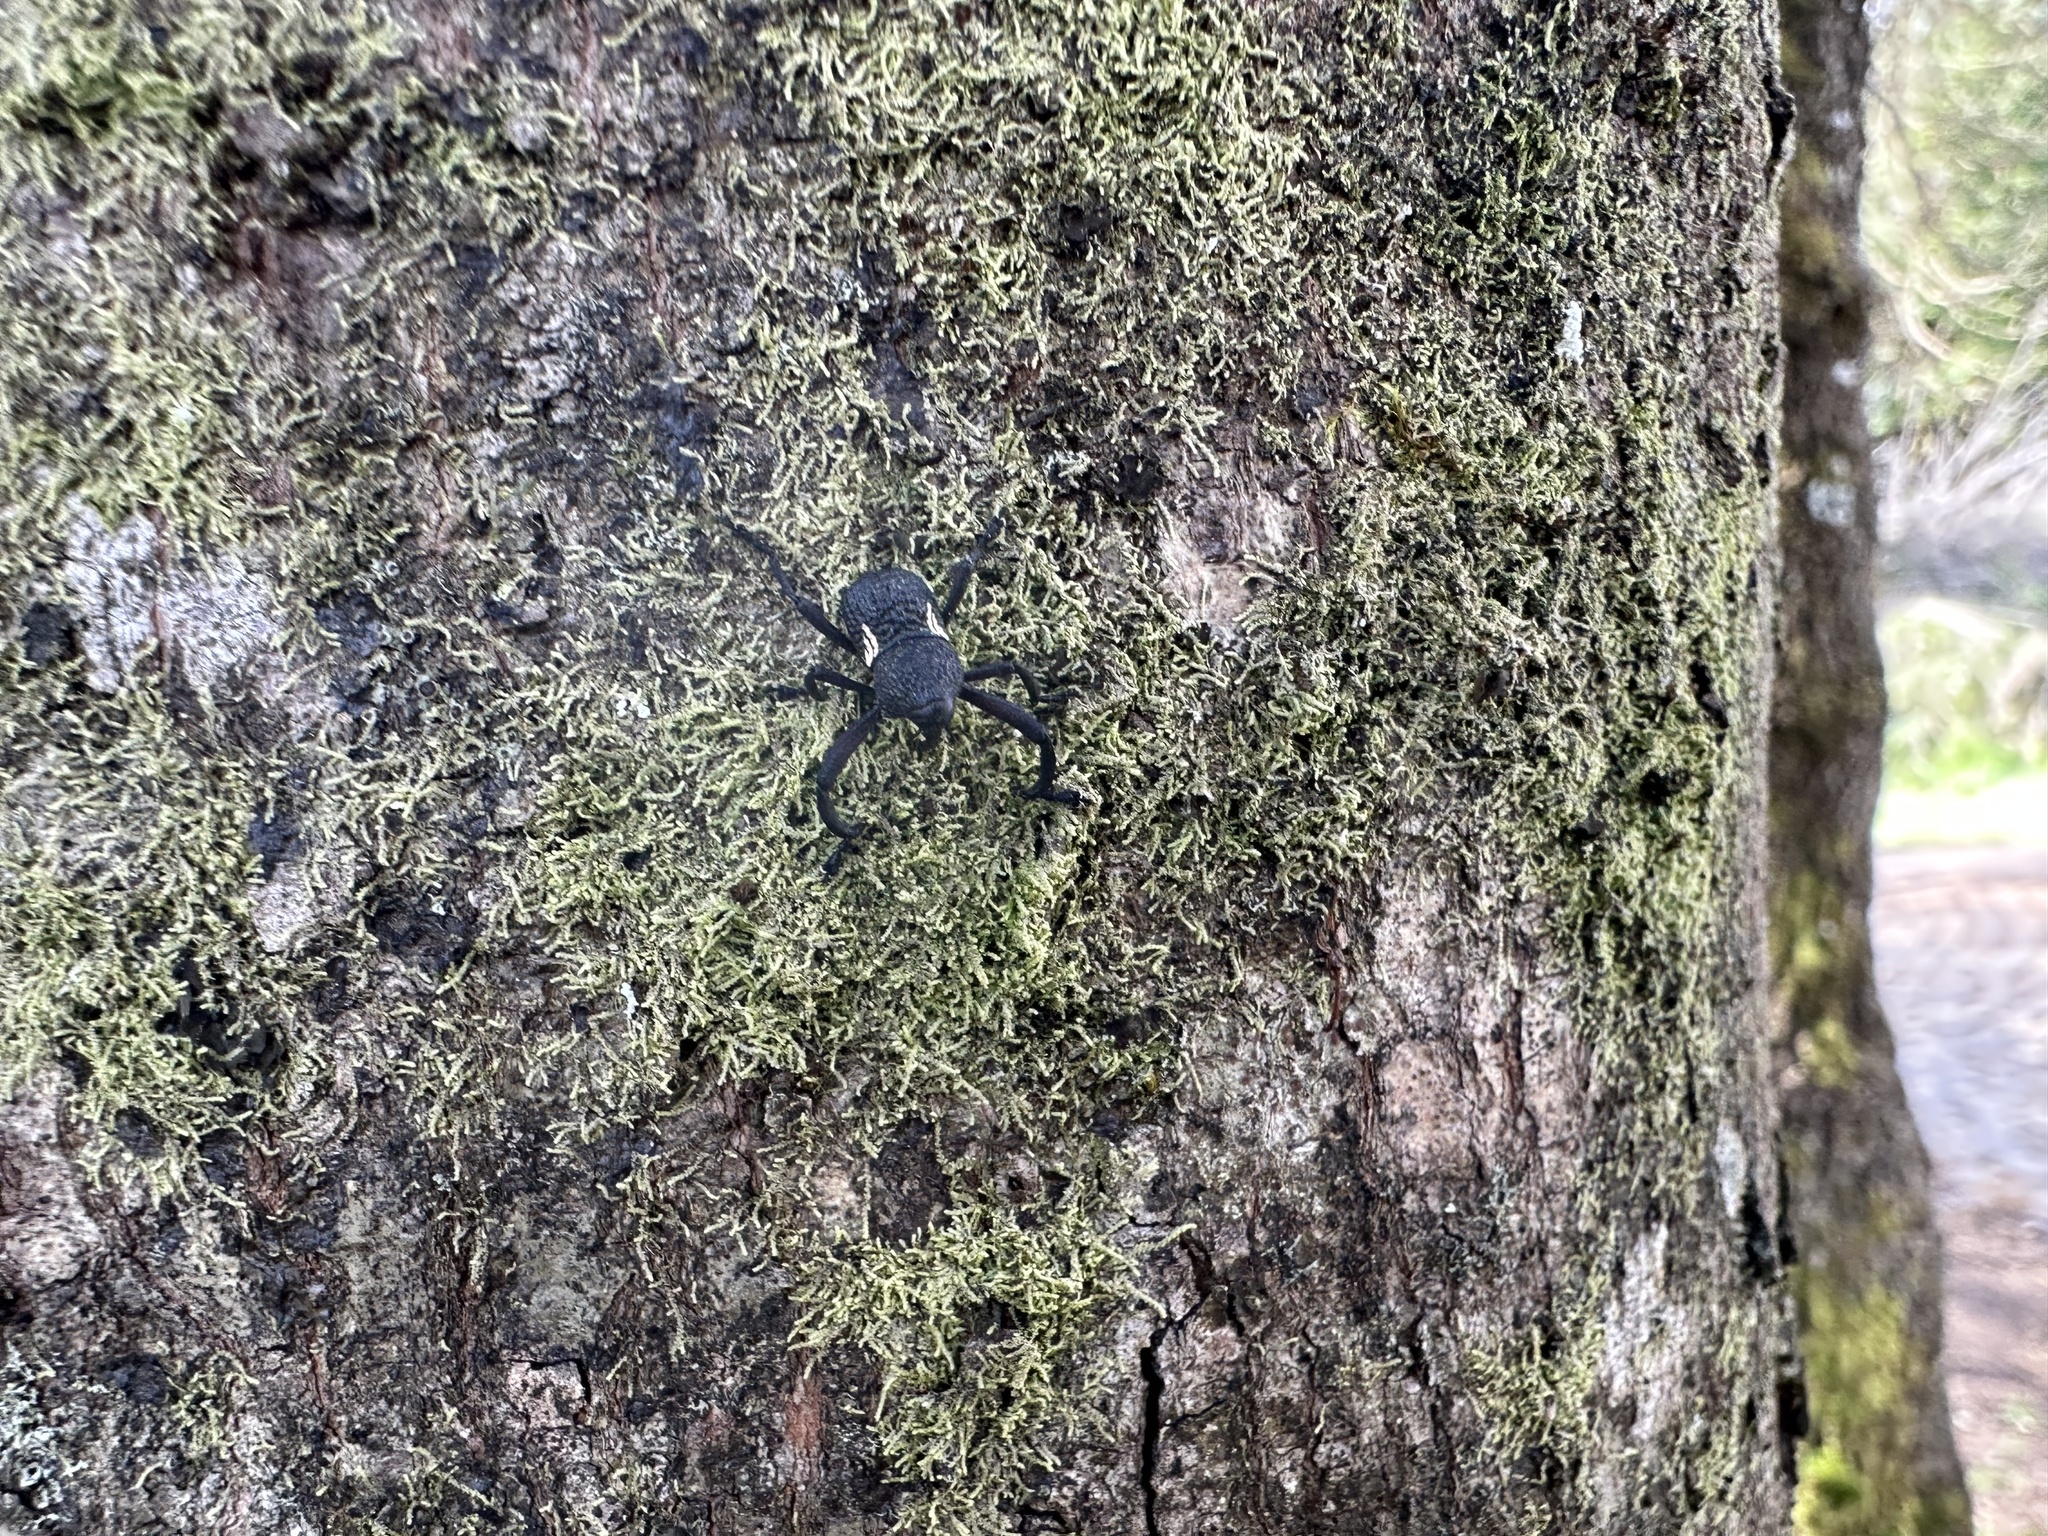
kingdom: Animalia
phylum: Arthropoda
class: Insecta
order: Coleoptera
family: Curculionidae
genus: Rhyephenes
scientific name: Rhyephenes humeralis
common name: Araè±ita chilena del pino
